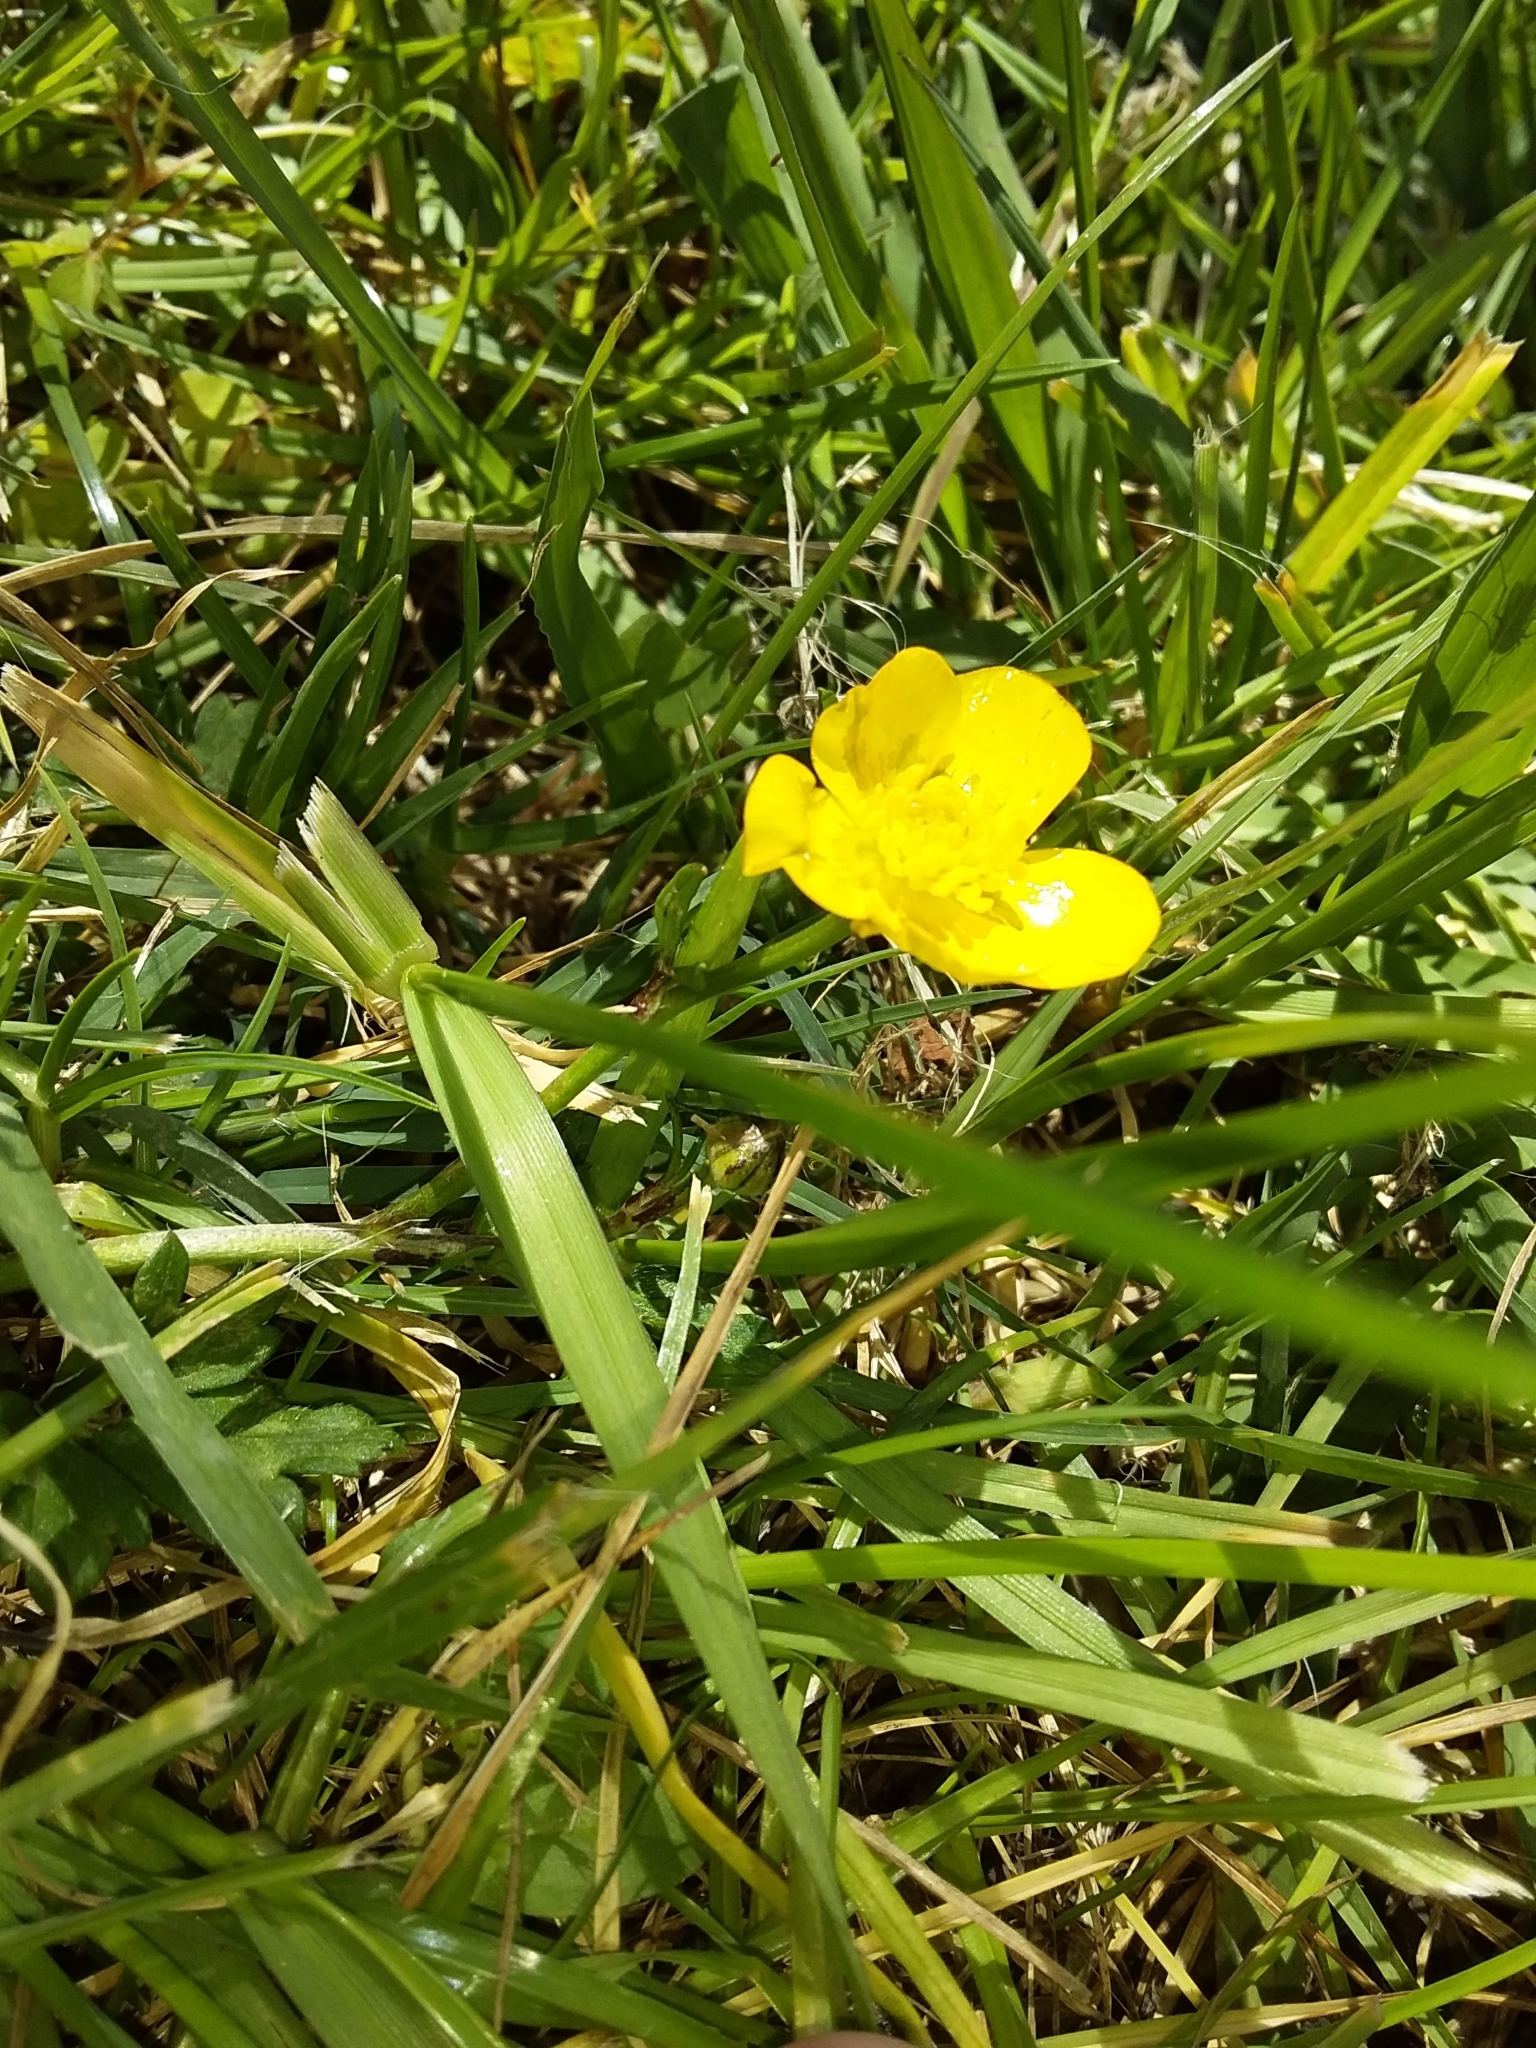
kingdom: Plantae
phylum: Tracheophyta
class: Magnoliopsida
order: Ranunculales
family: Ranunculaceae
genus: Ranunculus
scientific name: Ranunculus repens
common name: Creeping buttercup
